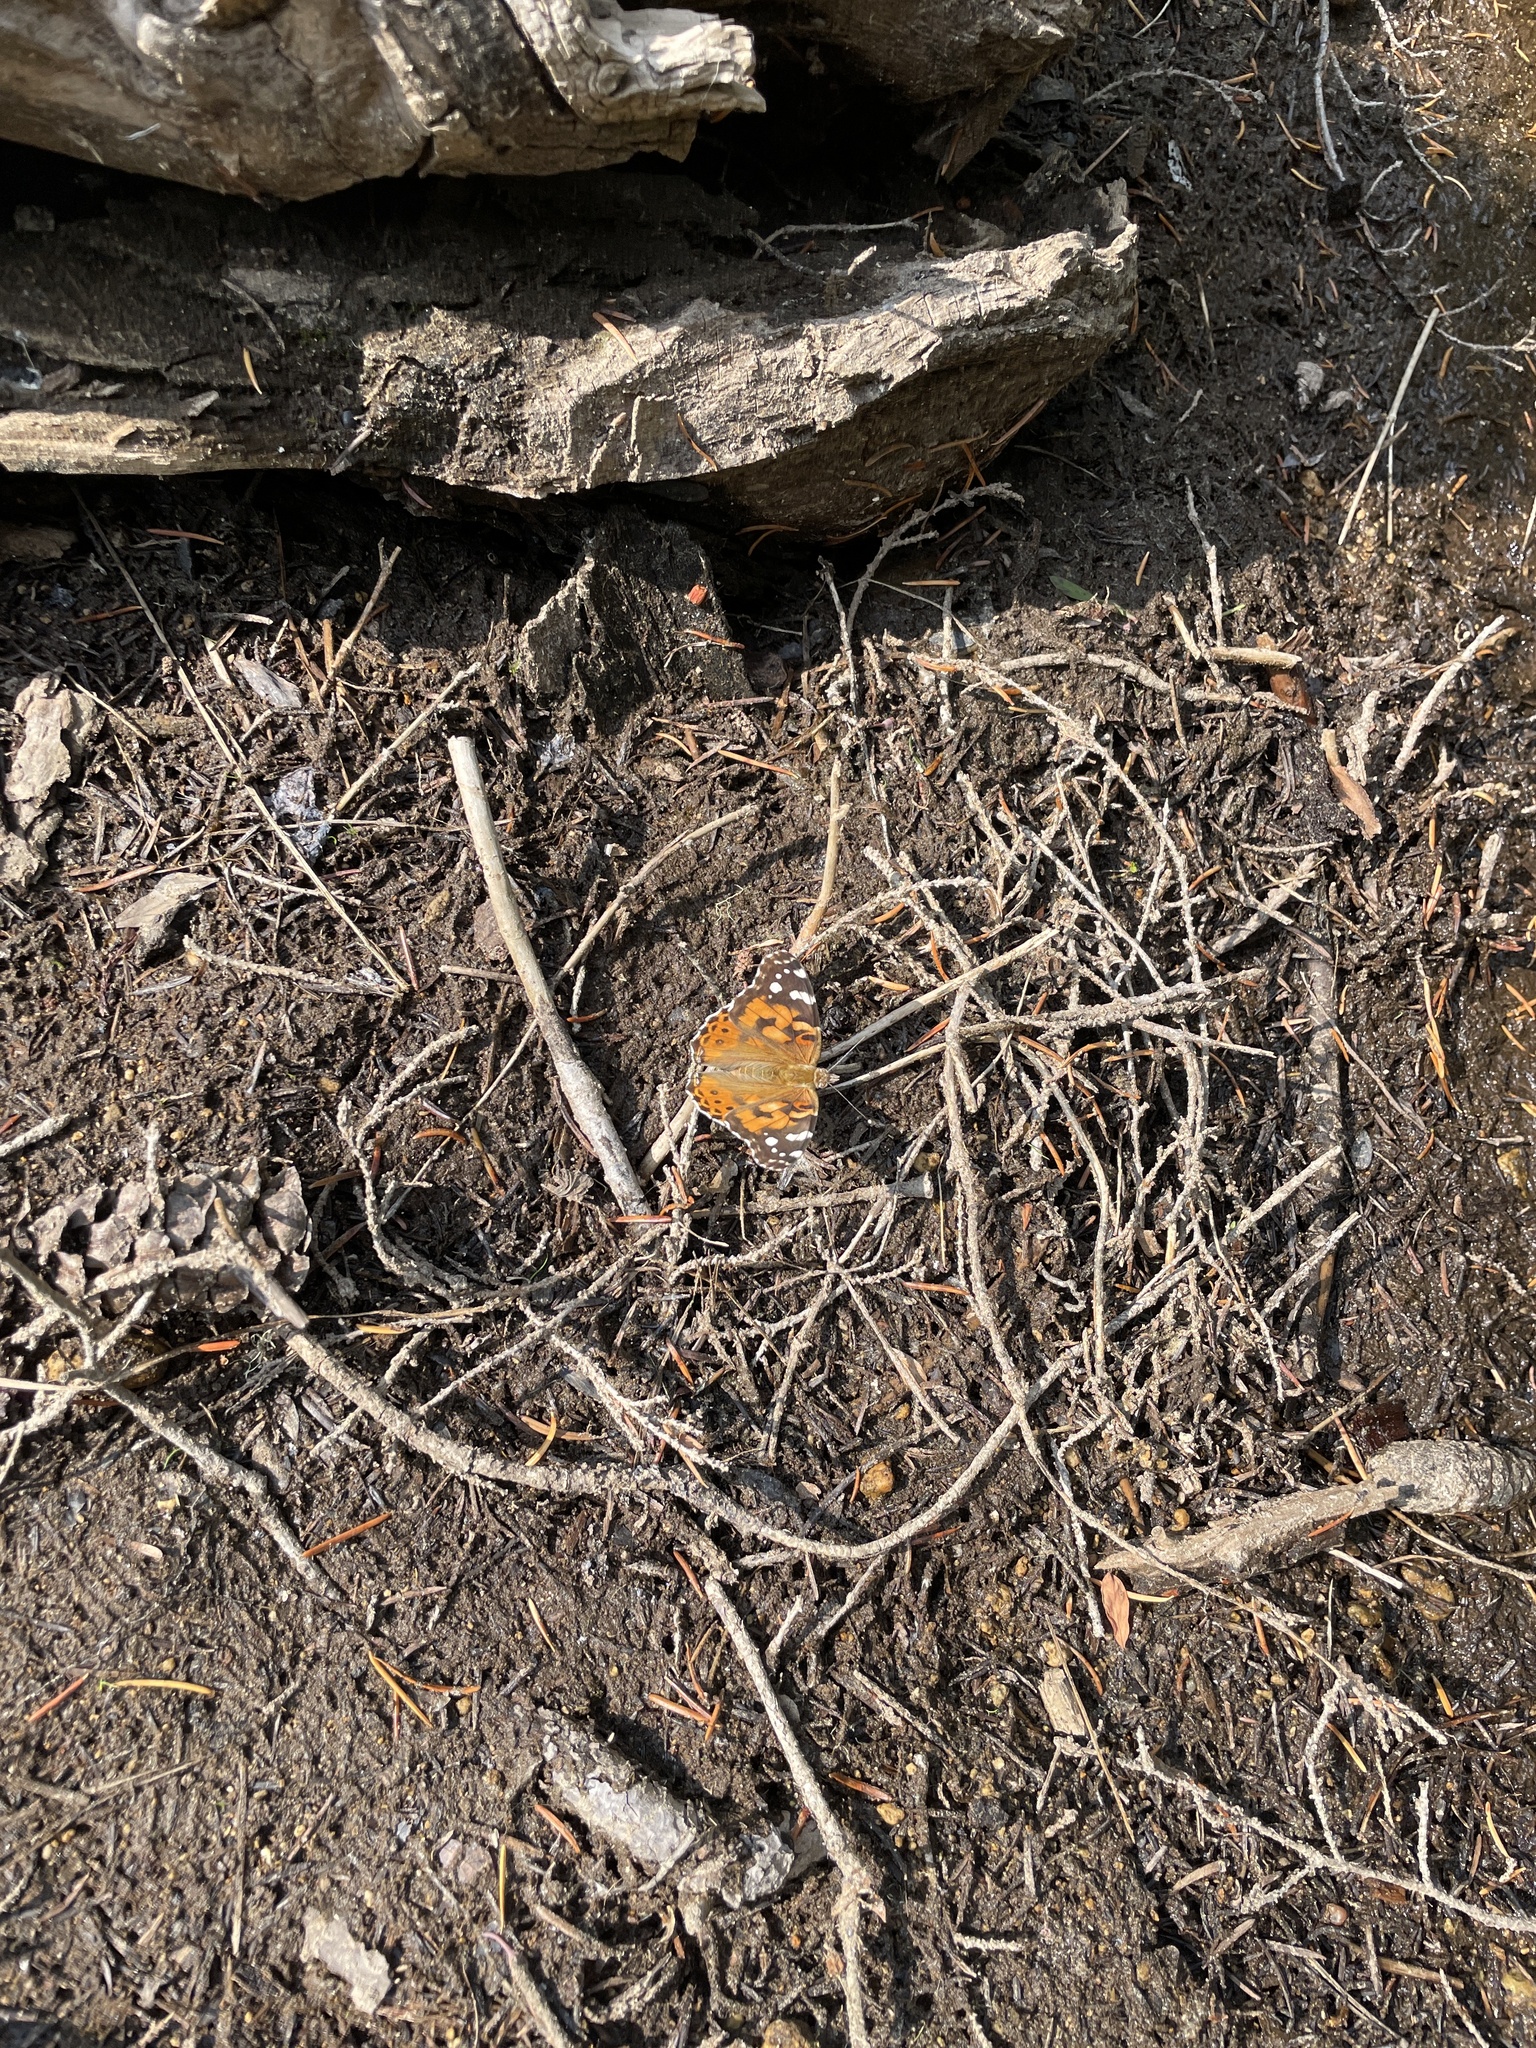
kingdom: Animalia
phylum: Arthropoda
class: Insecta
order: Lepidoptera
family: Nymphalidae
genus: Vanessa
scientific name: Vanessa cardui
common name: Painted lady
